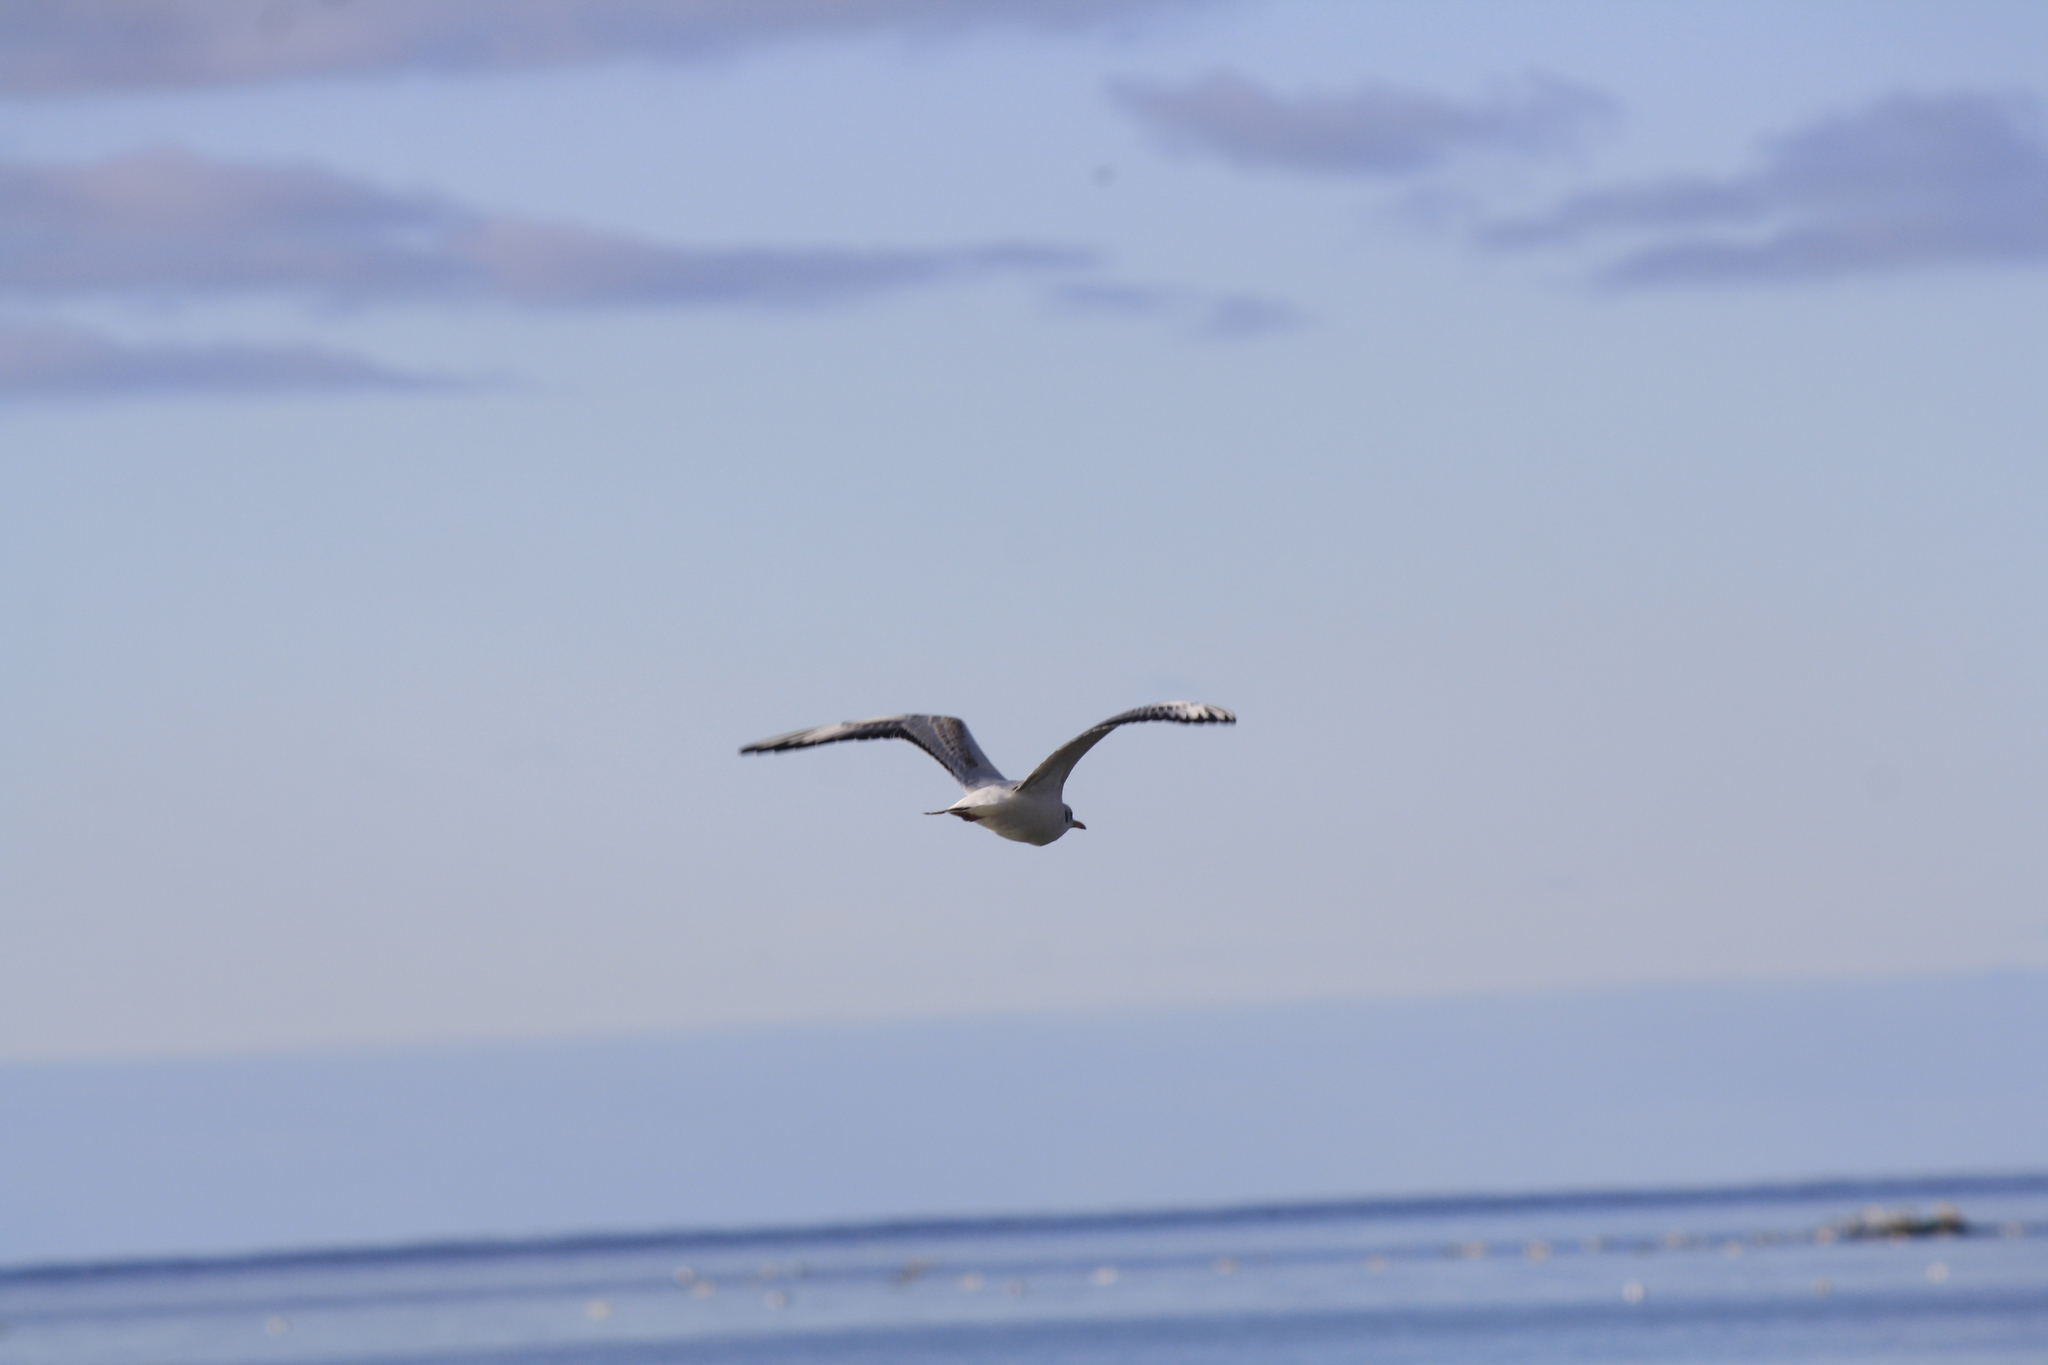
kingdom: Animalia
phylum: Chordata
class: Aves
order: Charadriiformes
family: Laridae
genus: Chroicocephalus
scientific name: Chroicocephalus ridibundus
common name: Black-headed gull
